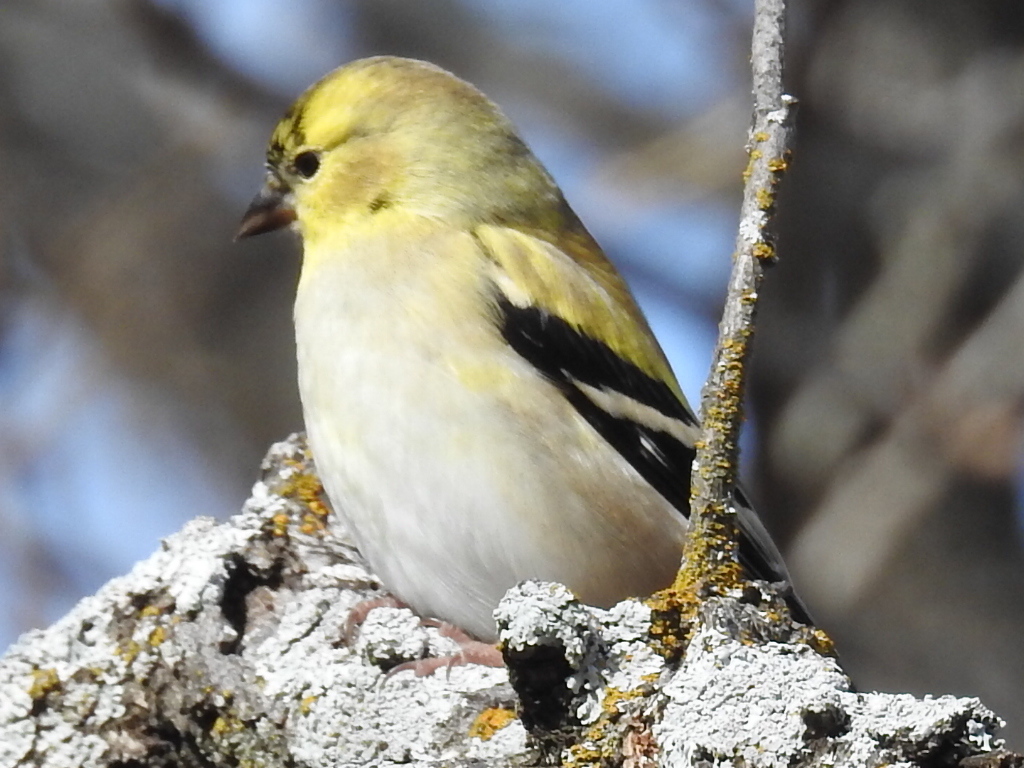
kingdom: Animalia
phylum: Chordata
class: Aves
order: Passeriformes
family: Fringillidae
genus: Spinus
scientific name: Spinus tristis
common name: American goldfinch
